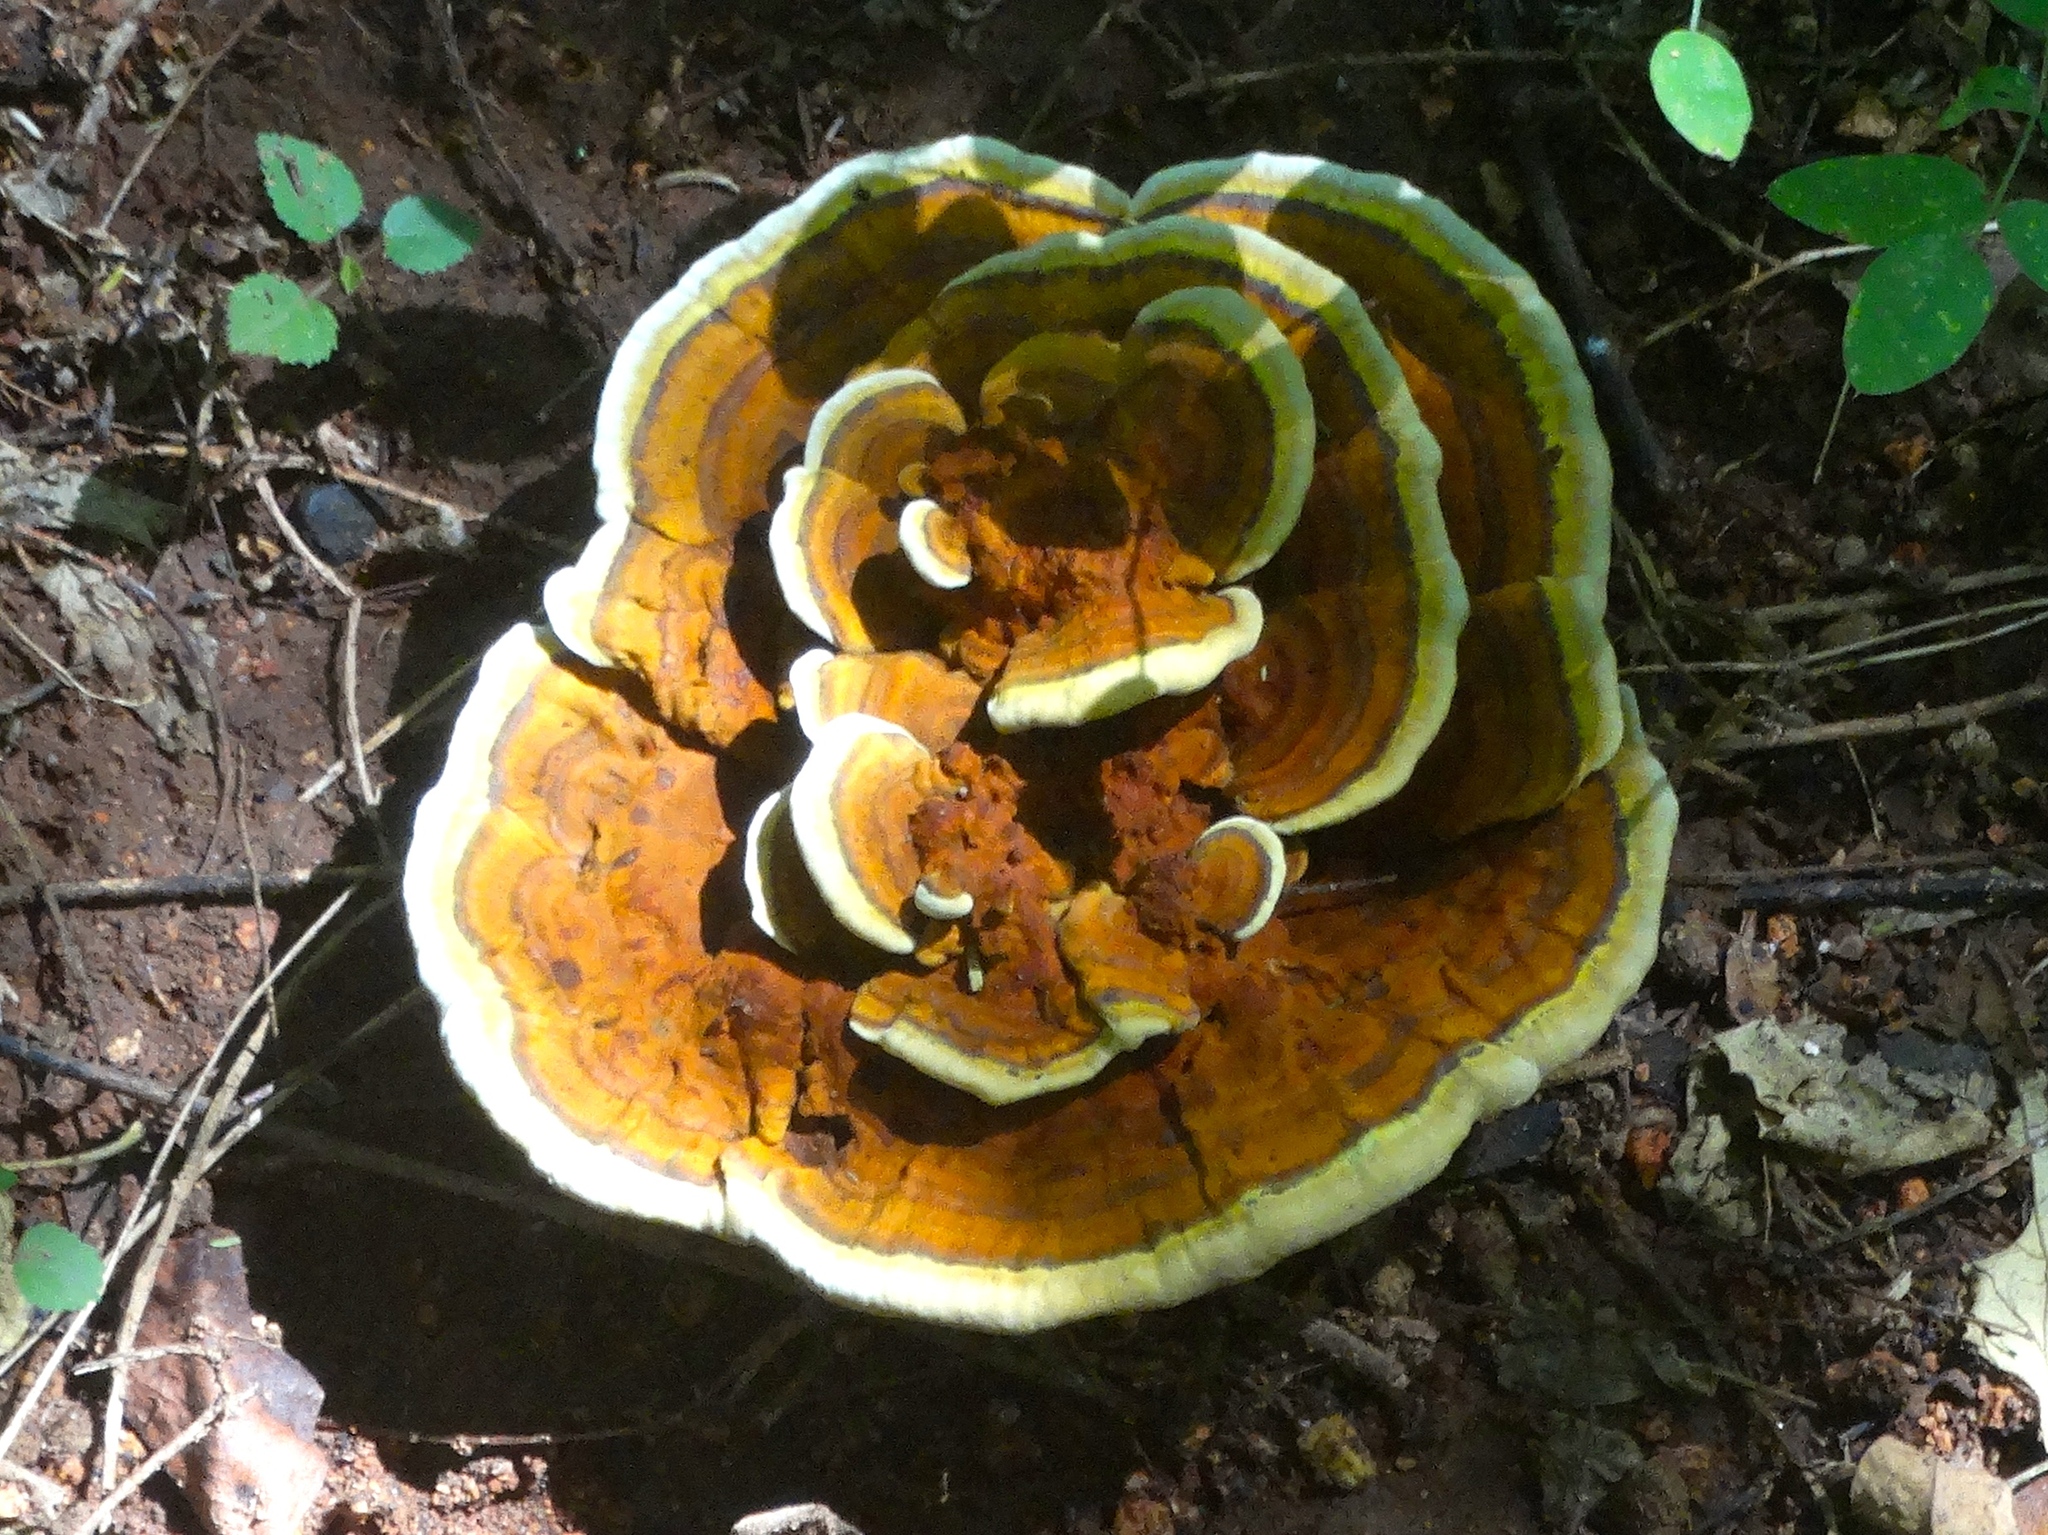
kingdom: Fungi
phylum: Basidiomycota
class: Agaricomycetes
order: Polyporales
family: Laetiporaceae
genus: Phaeolus
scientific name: Phaeolus schweinitzii
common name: Dyer's mazegill
